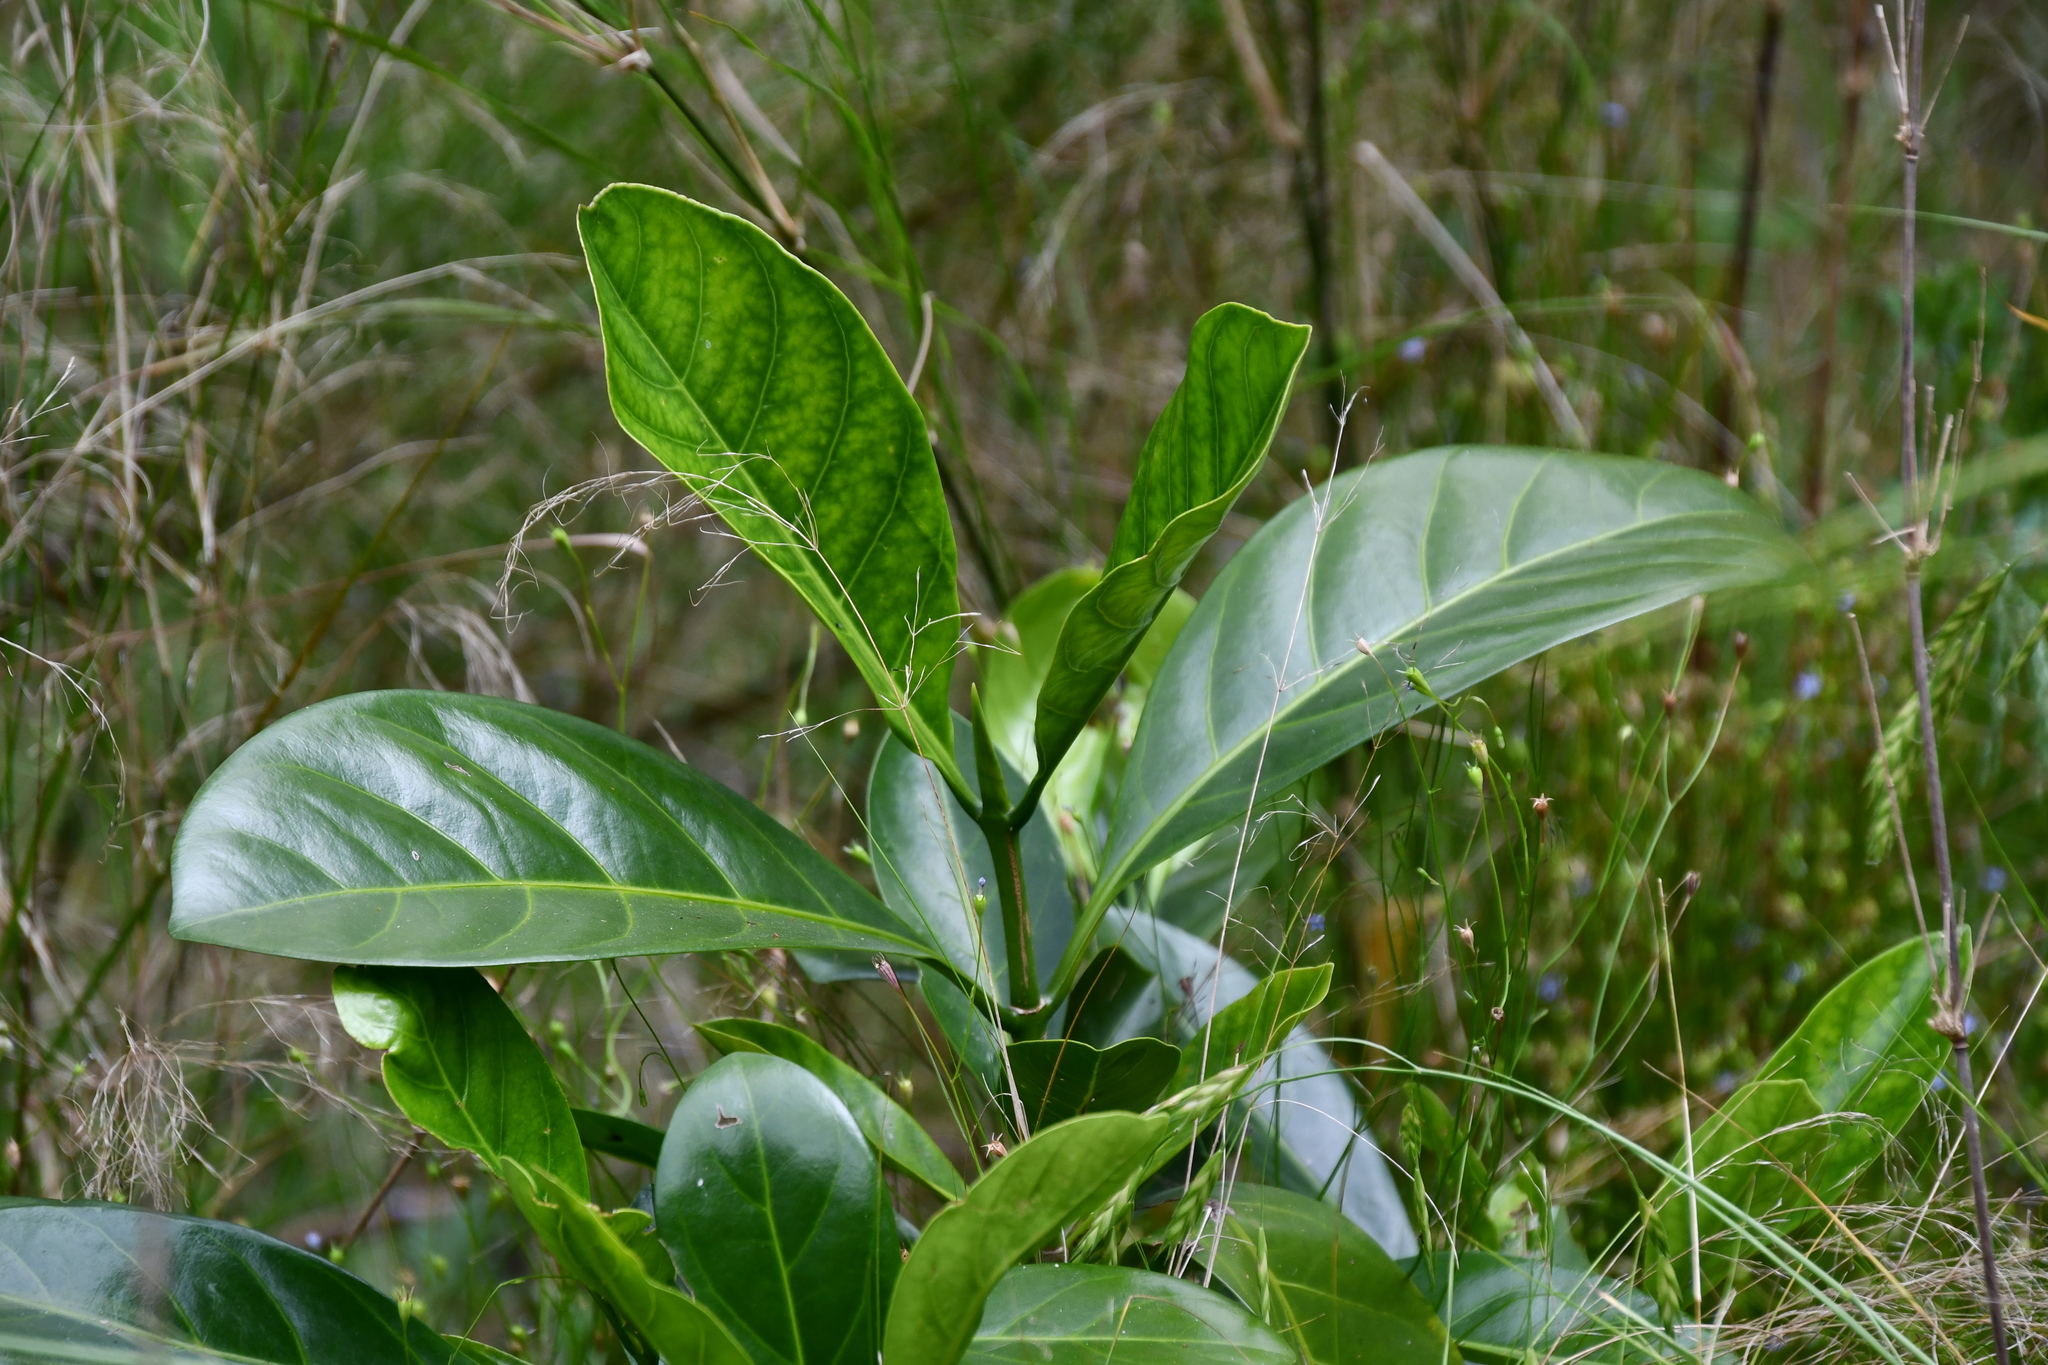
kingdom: Plantae
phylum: Tracheophyta
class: Magnoliopsida
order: Gentianales
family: Rubiaceae
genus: Atractocarpus
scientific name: Atractocarpus fitzalanii
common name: Randia
